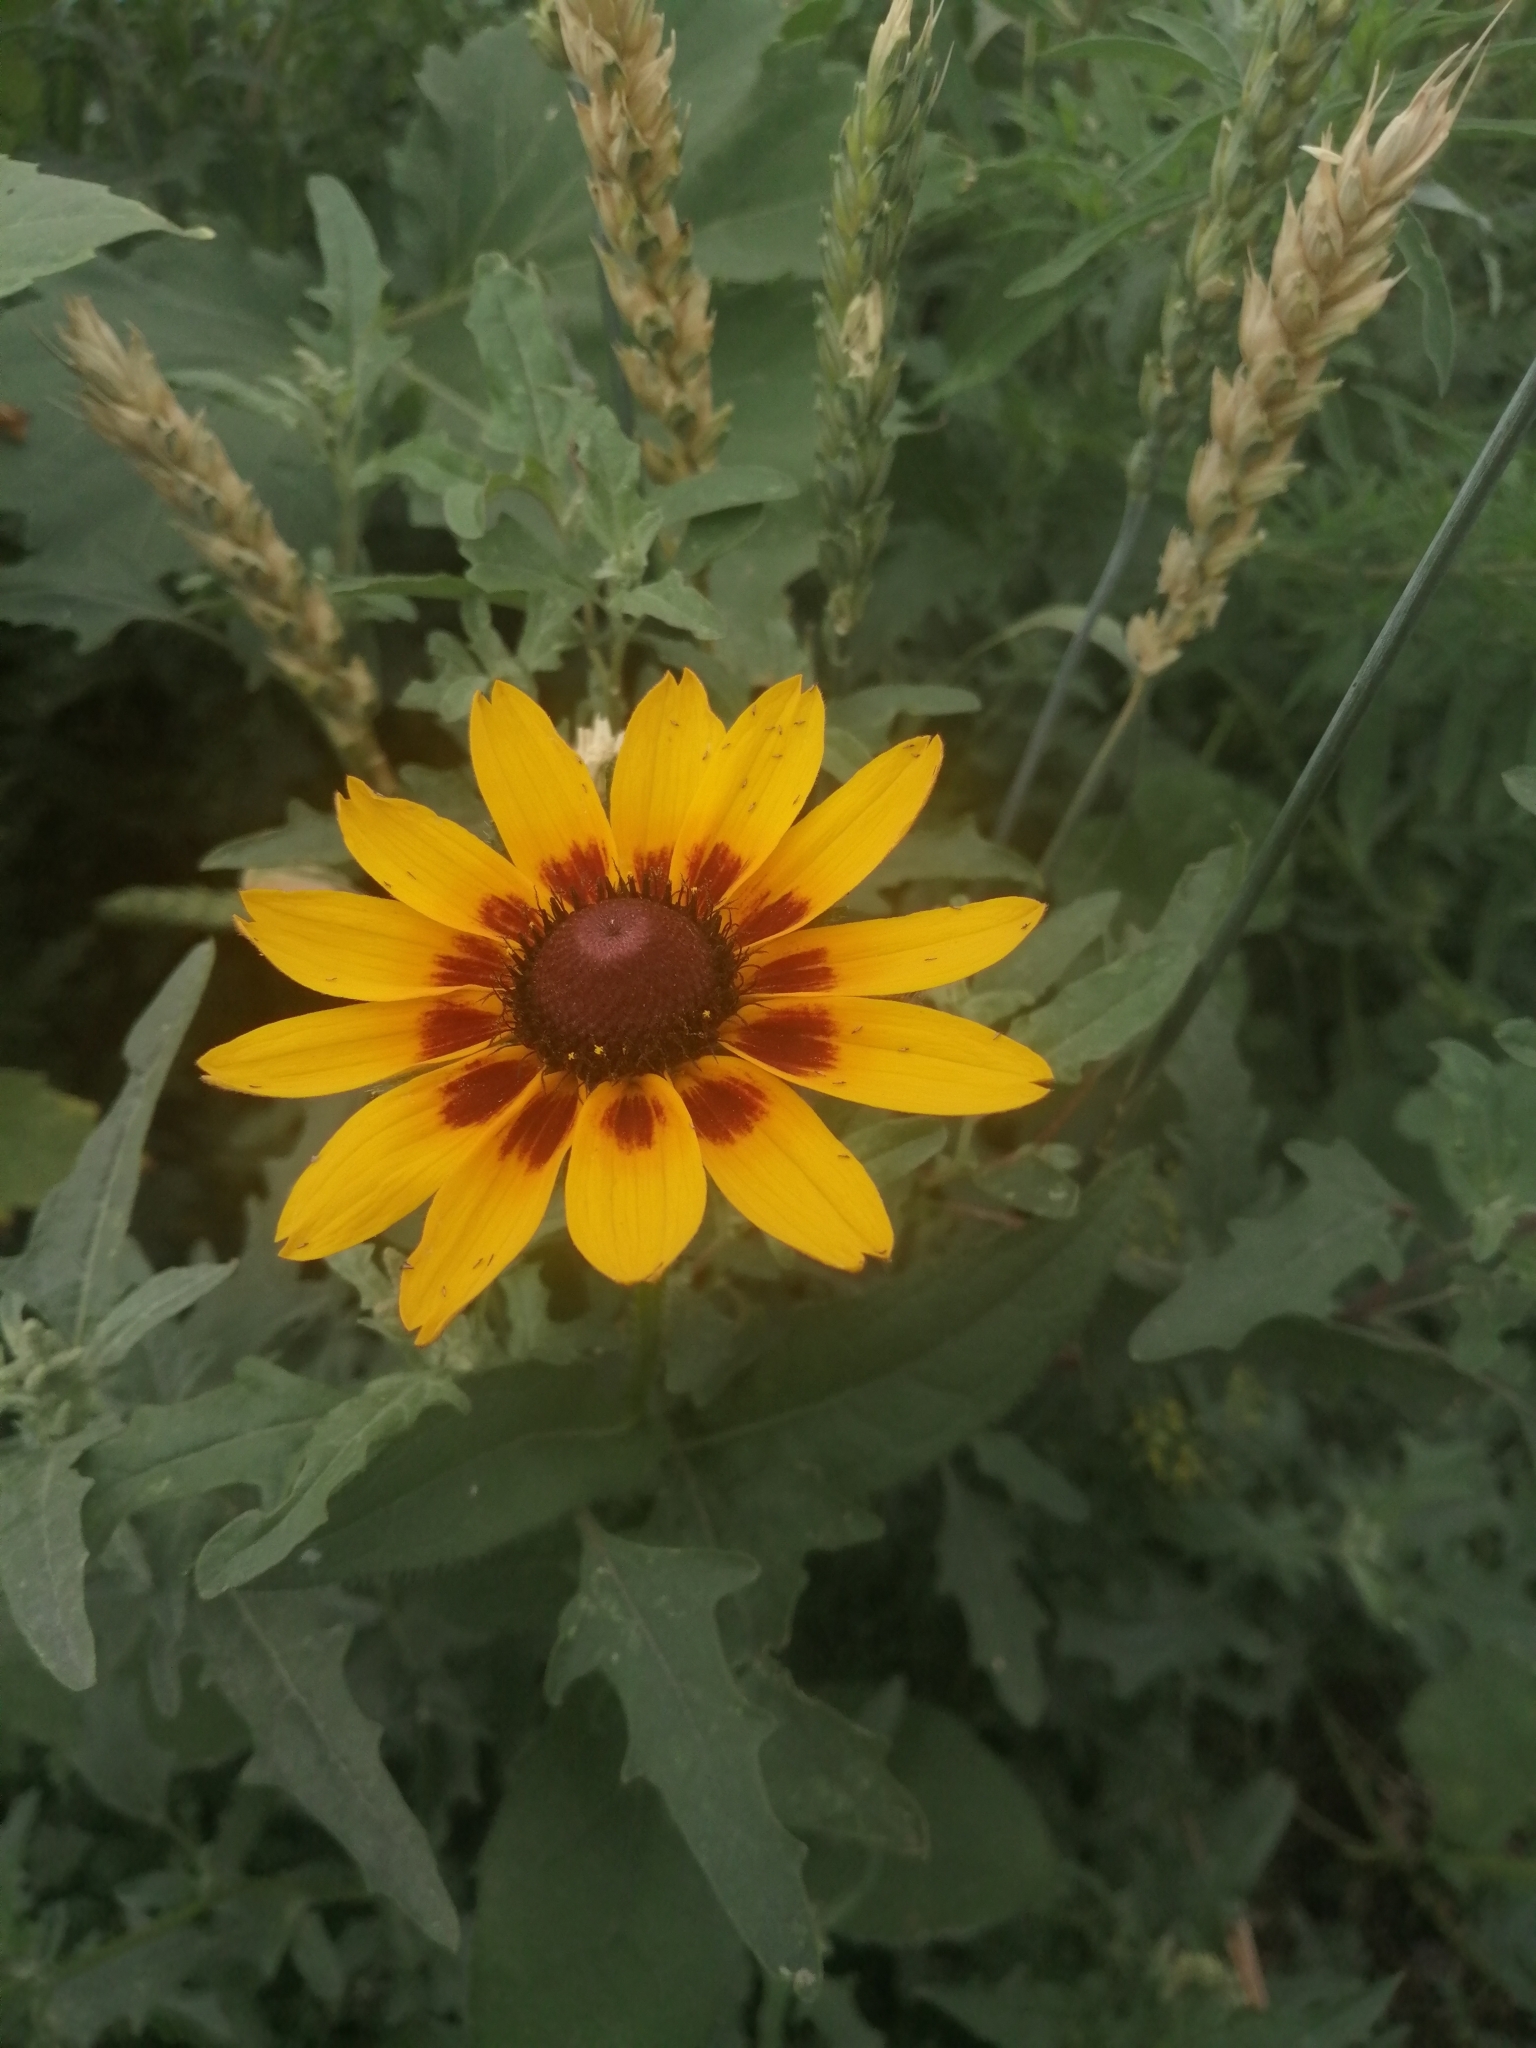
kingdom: Plantae
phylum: Tracheophyta
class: Magnoliopsida
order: Asterales
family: Asteraceae
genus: Rudbeckia
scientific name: Rudbeckia hirta
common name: Black-eyed-susan
